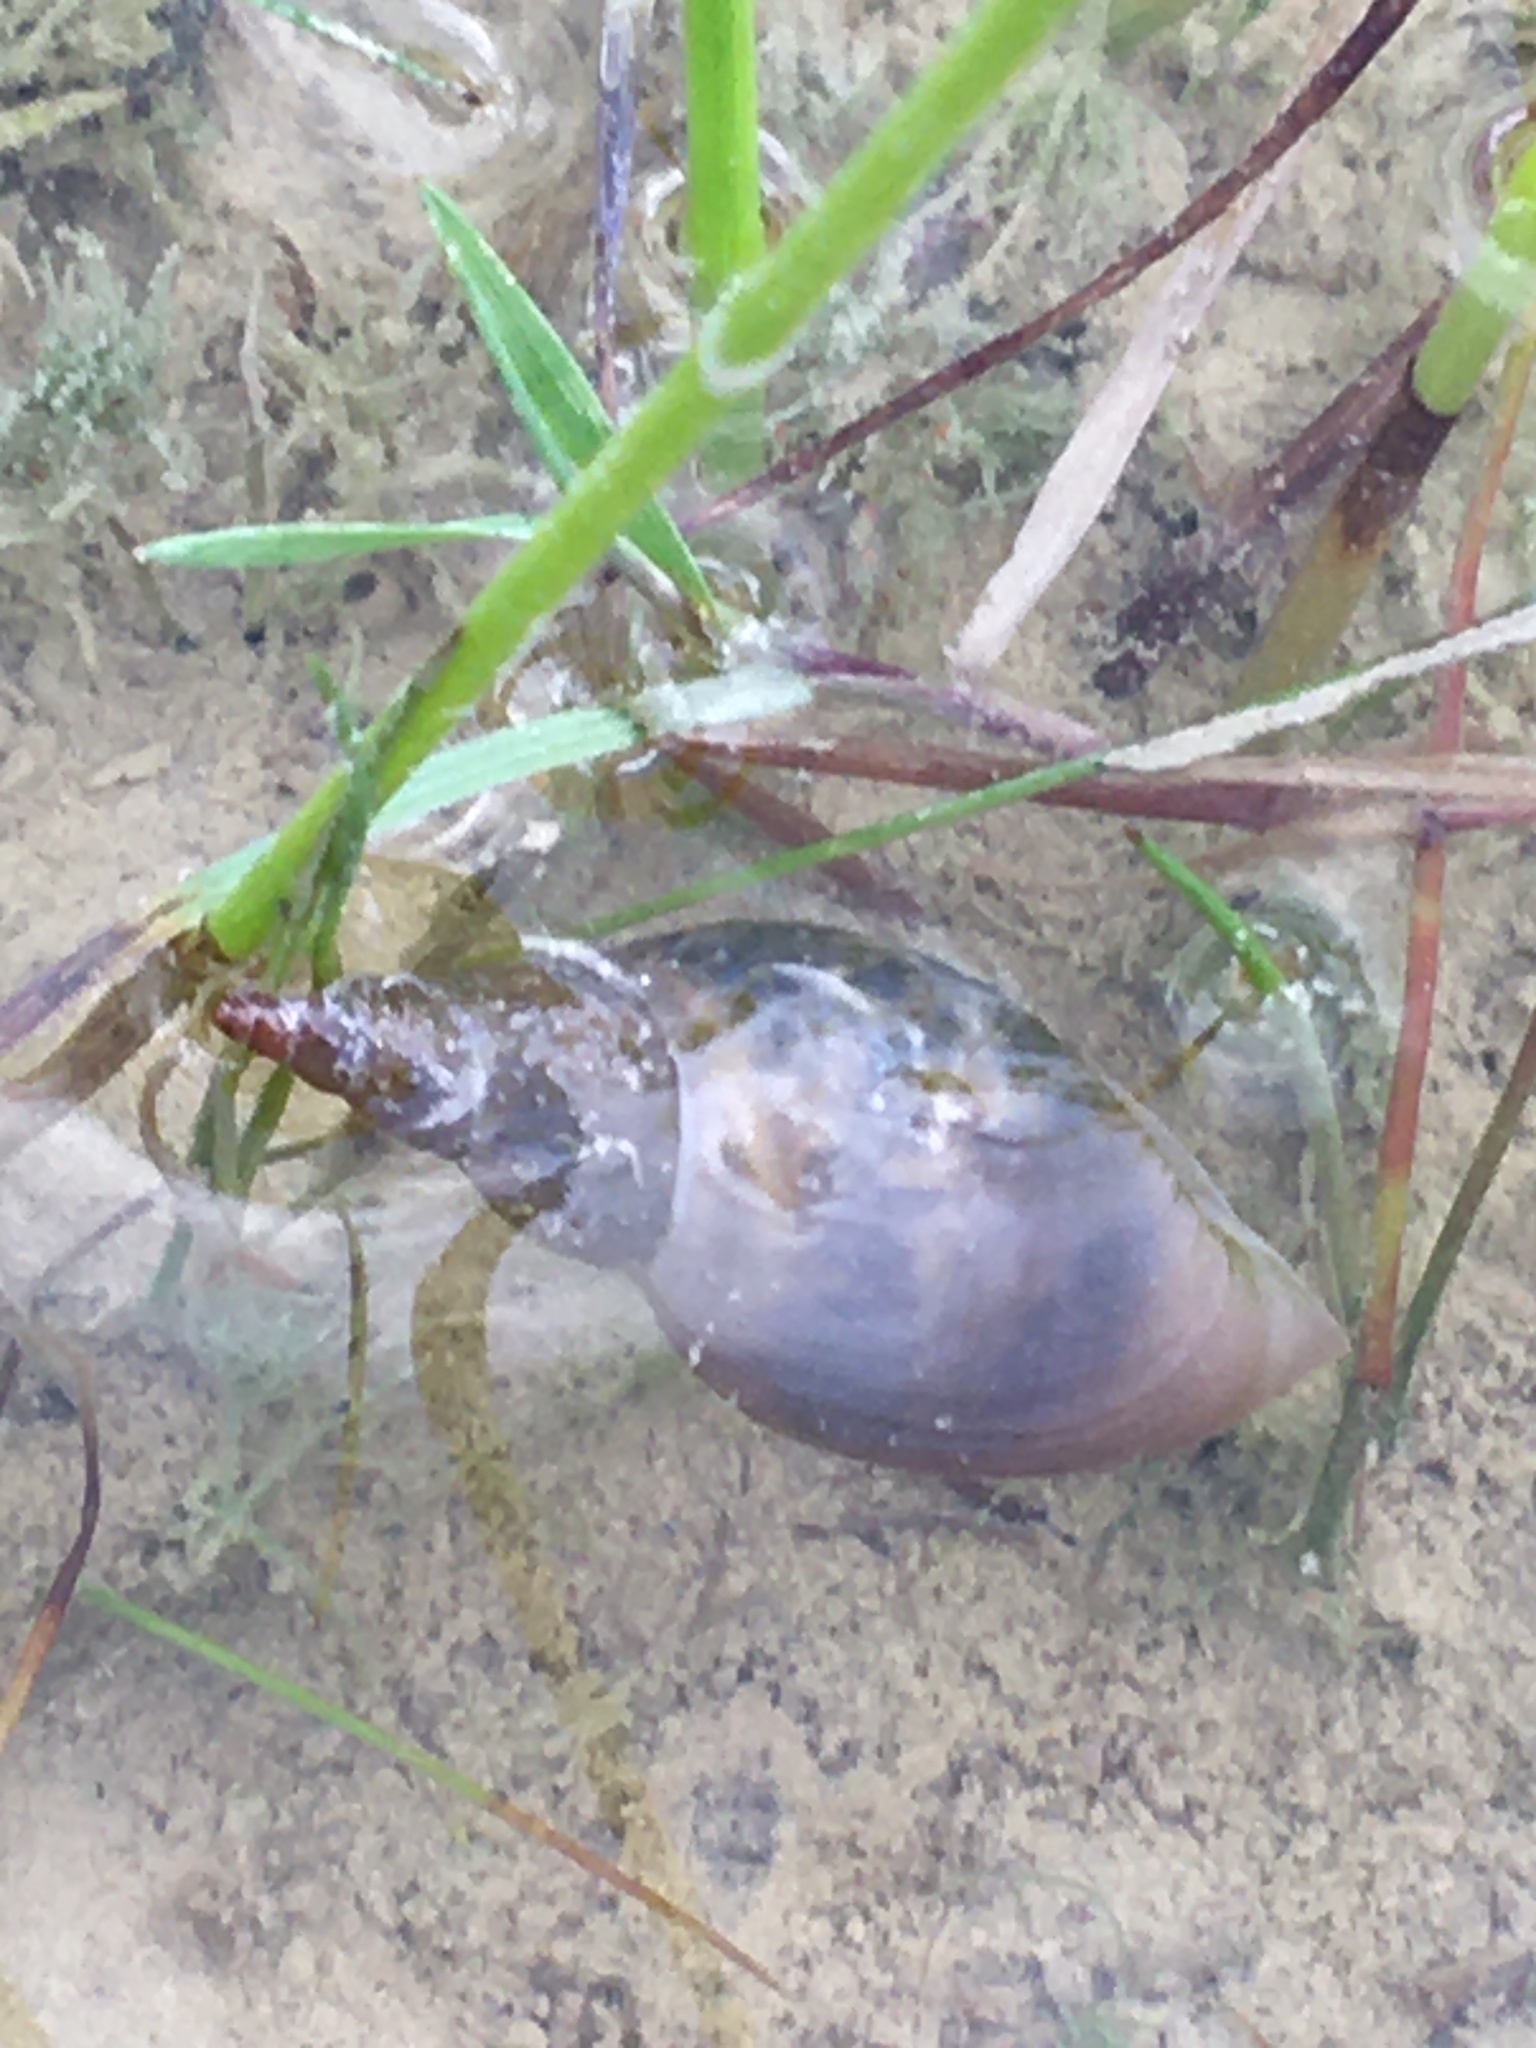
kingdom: Animalia
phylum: Mollusca
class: Gastropoda
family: Lymnaeidae
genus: Lymnaea
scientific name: Lymnaea stagnalis
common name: Great pond snail
